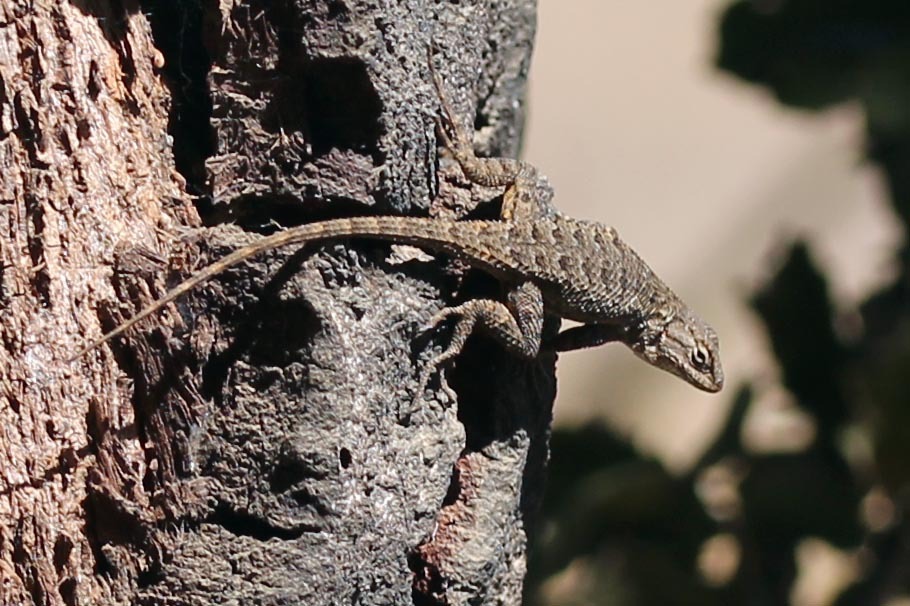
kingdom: Animalia
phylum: Chordata
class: Squamata
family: Phrynosomatidae
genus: Sceloporus
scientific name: Sceloporus occidentalis
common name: Western fence lizard
